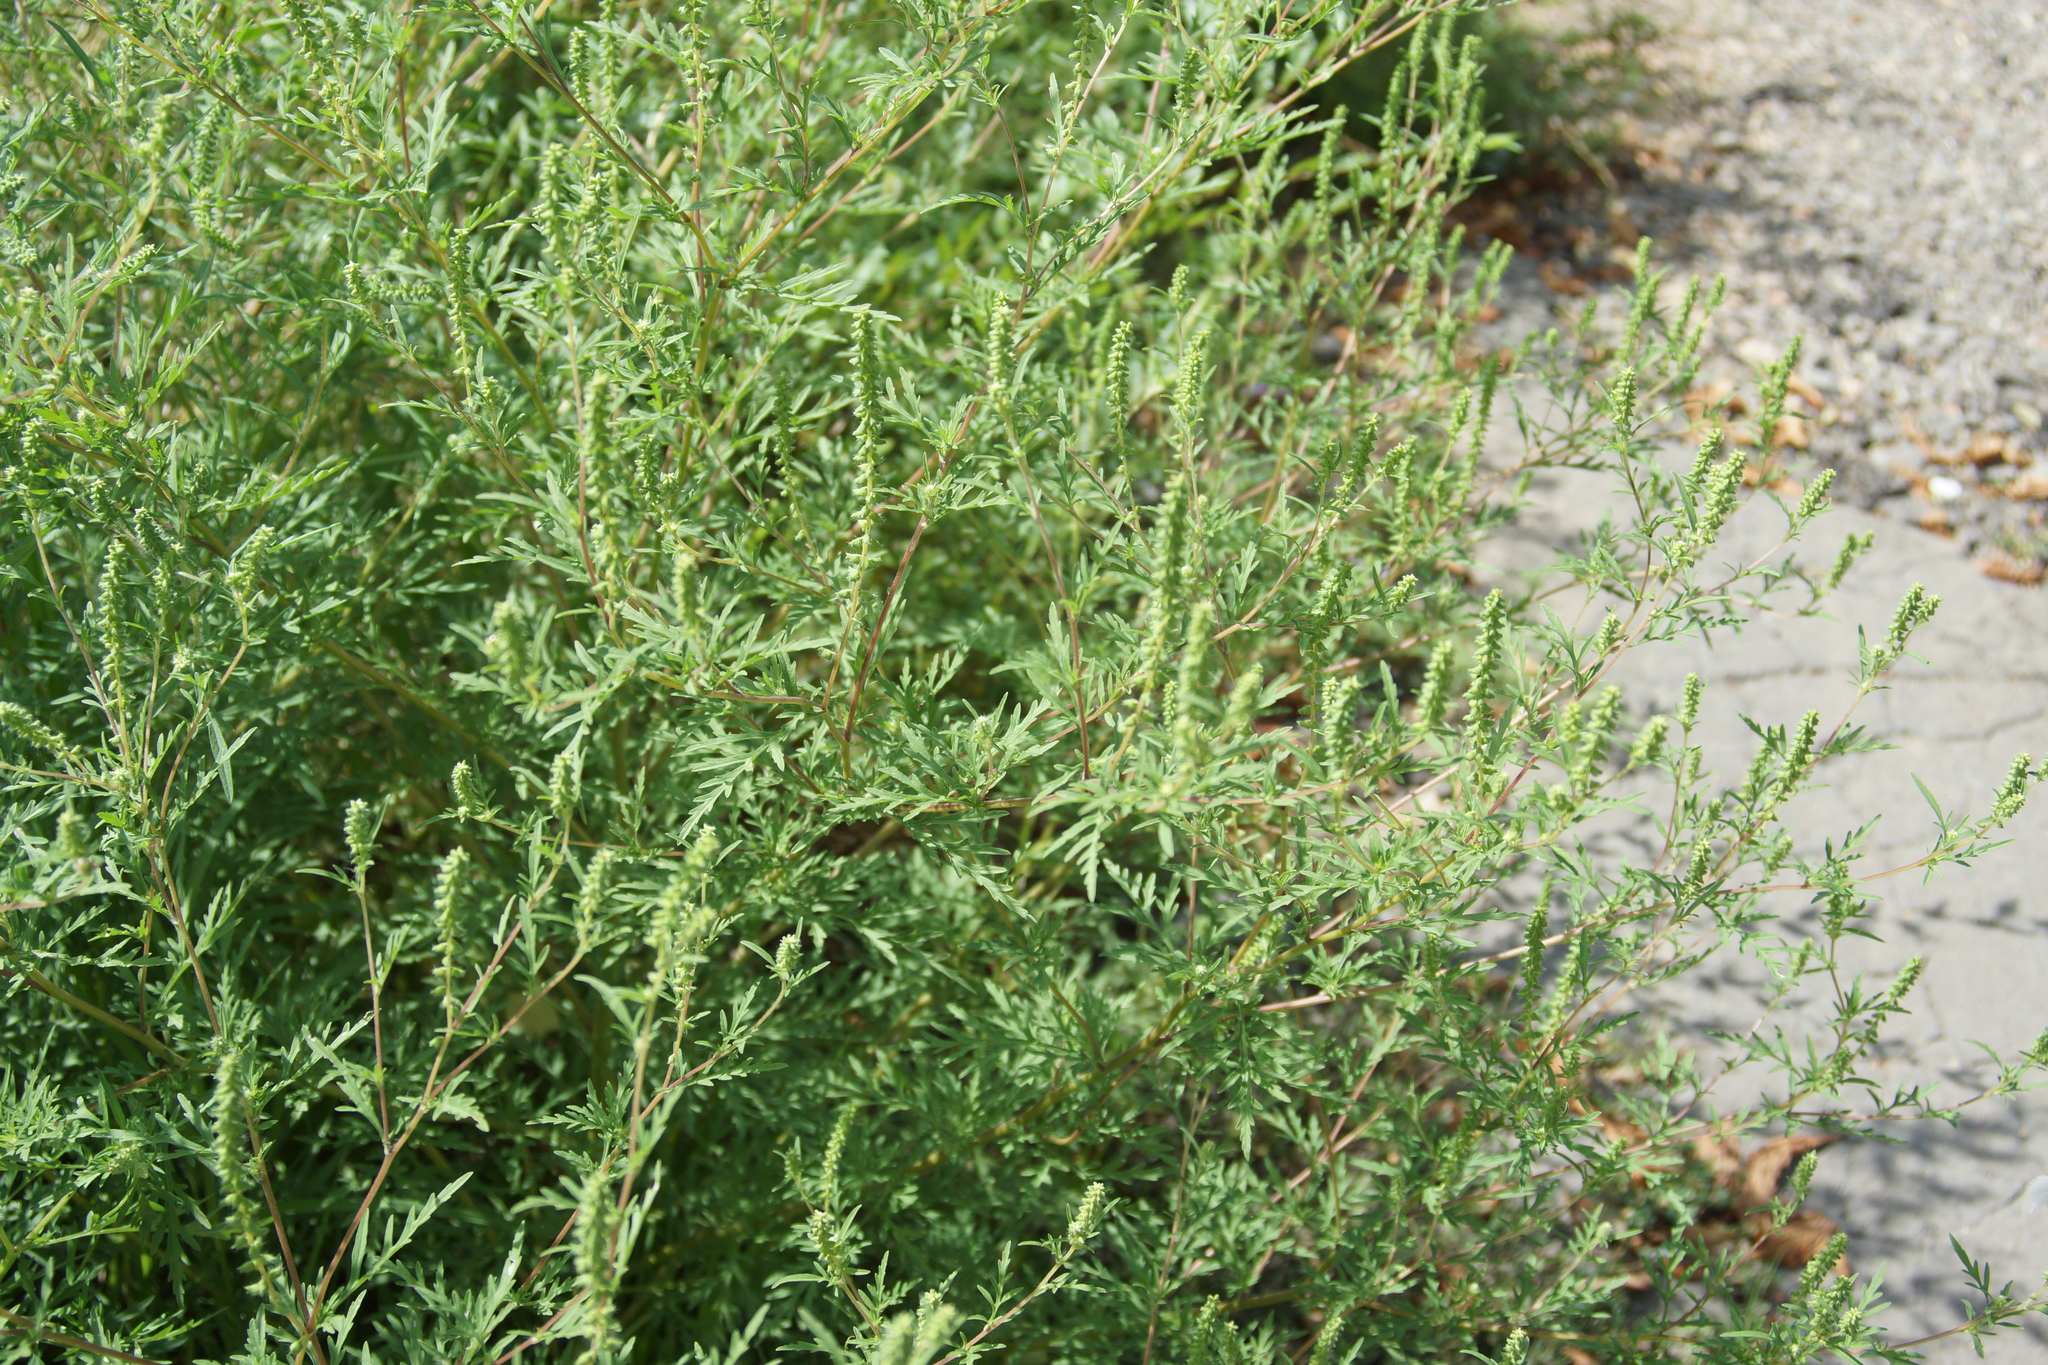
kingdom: Plantae
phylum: Tracheophyta
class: Magnoliopsida
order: Asterales
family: Asteraceae
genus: Ambrosia
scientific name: Ambrosia artemisiifolia
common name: Annual ragweed
